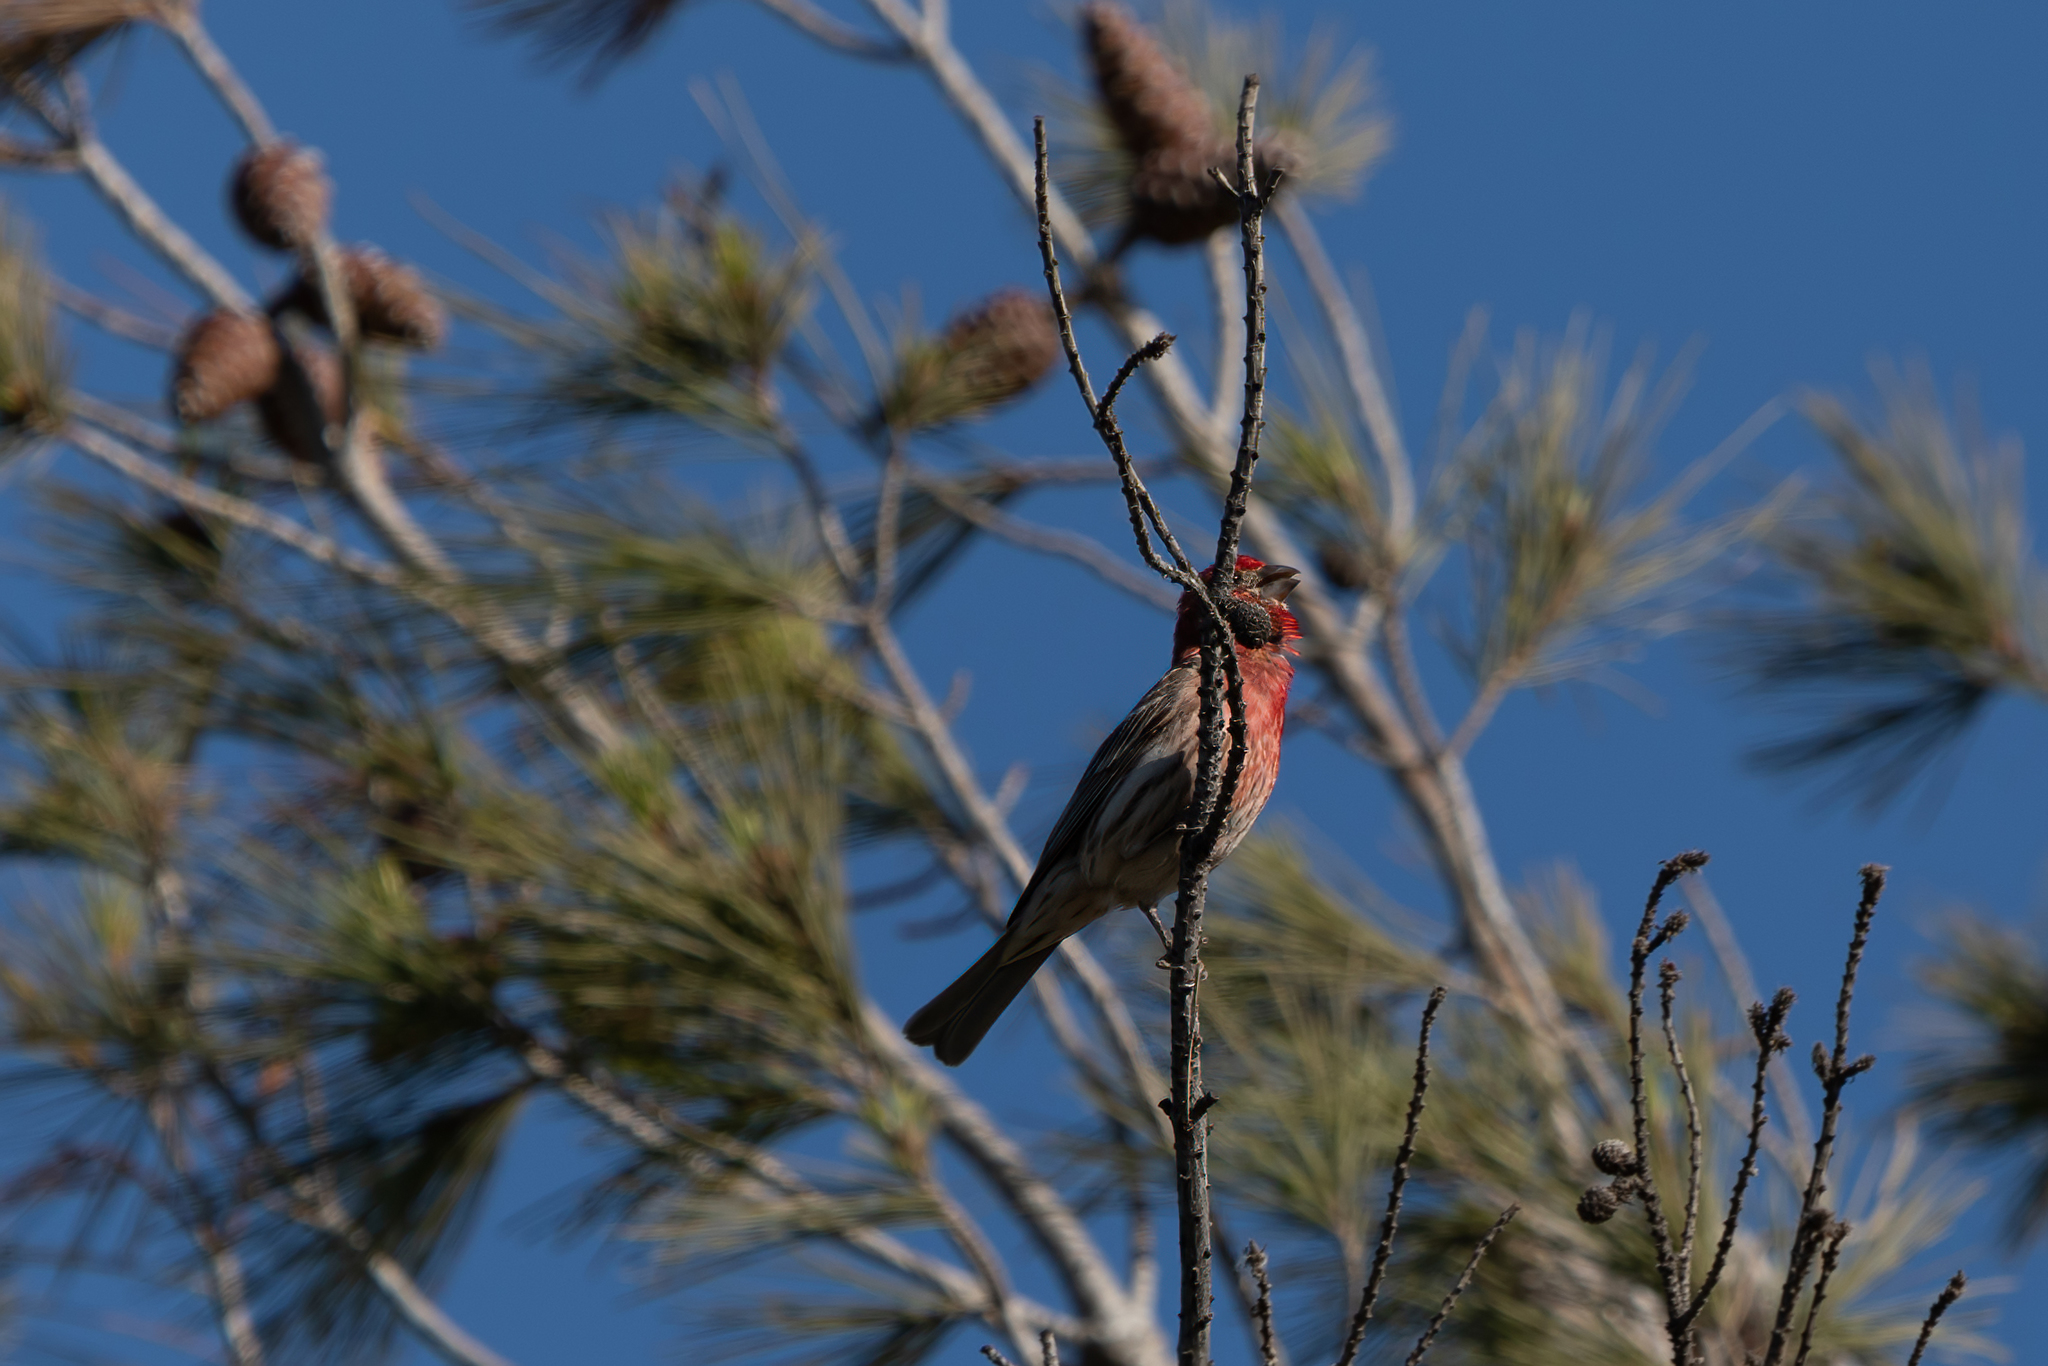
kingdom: Animalia
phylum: Chordata
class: Aves
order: Passeriformes
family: Fringillidae
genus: Haemorhous
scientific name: Haemorhous mexicanus
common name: House finch
